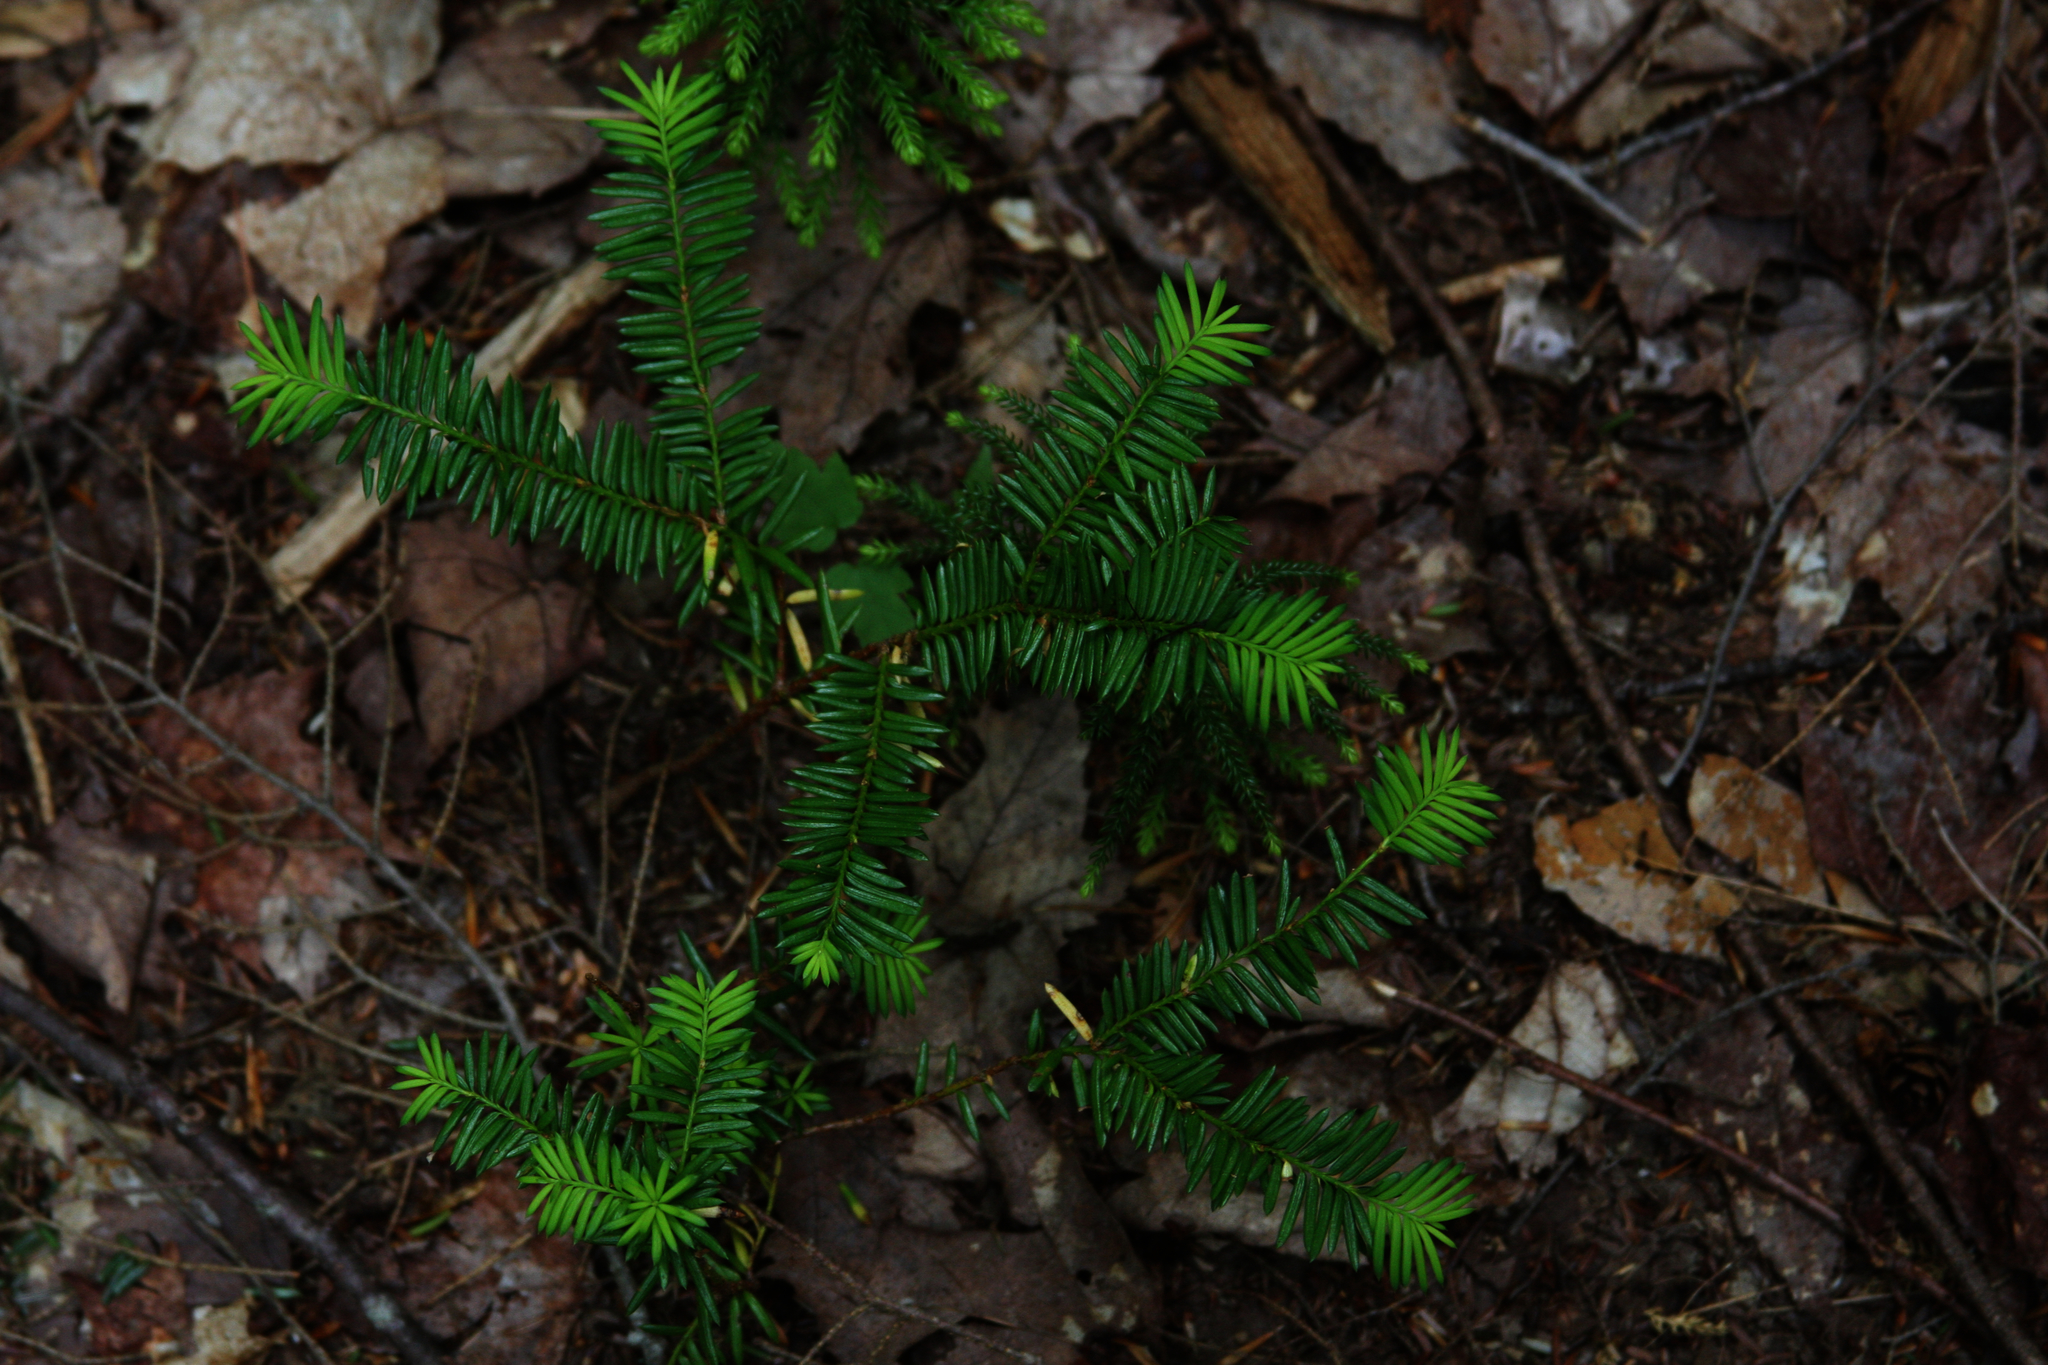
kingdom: Plantae
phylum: Tracheophyta
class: Pinopsida
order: Pinales
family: Taxaceae
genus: Taxus
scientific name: Taxus canadensis
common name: American yew
